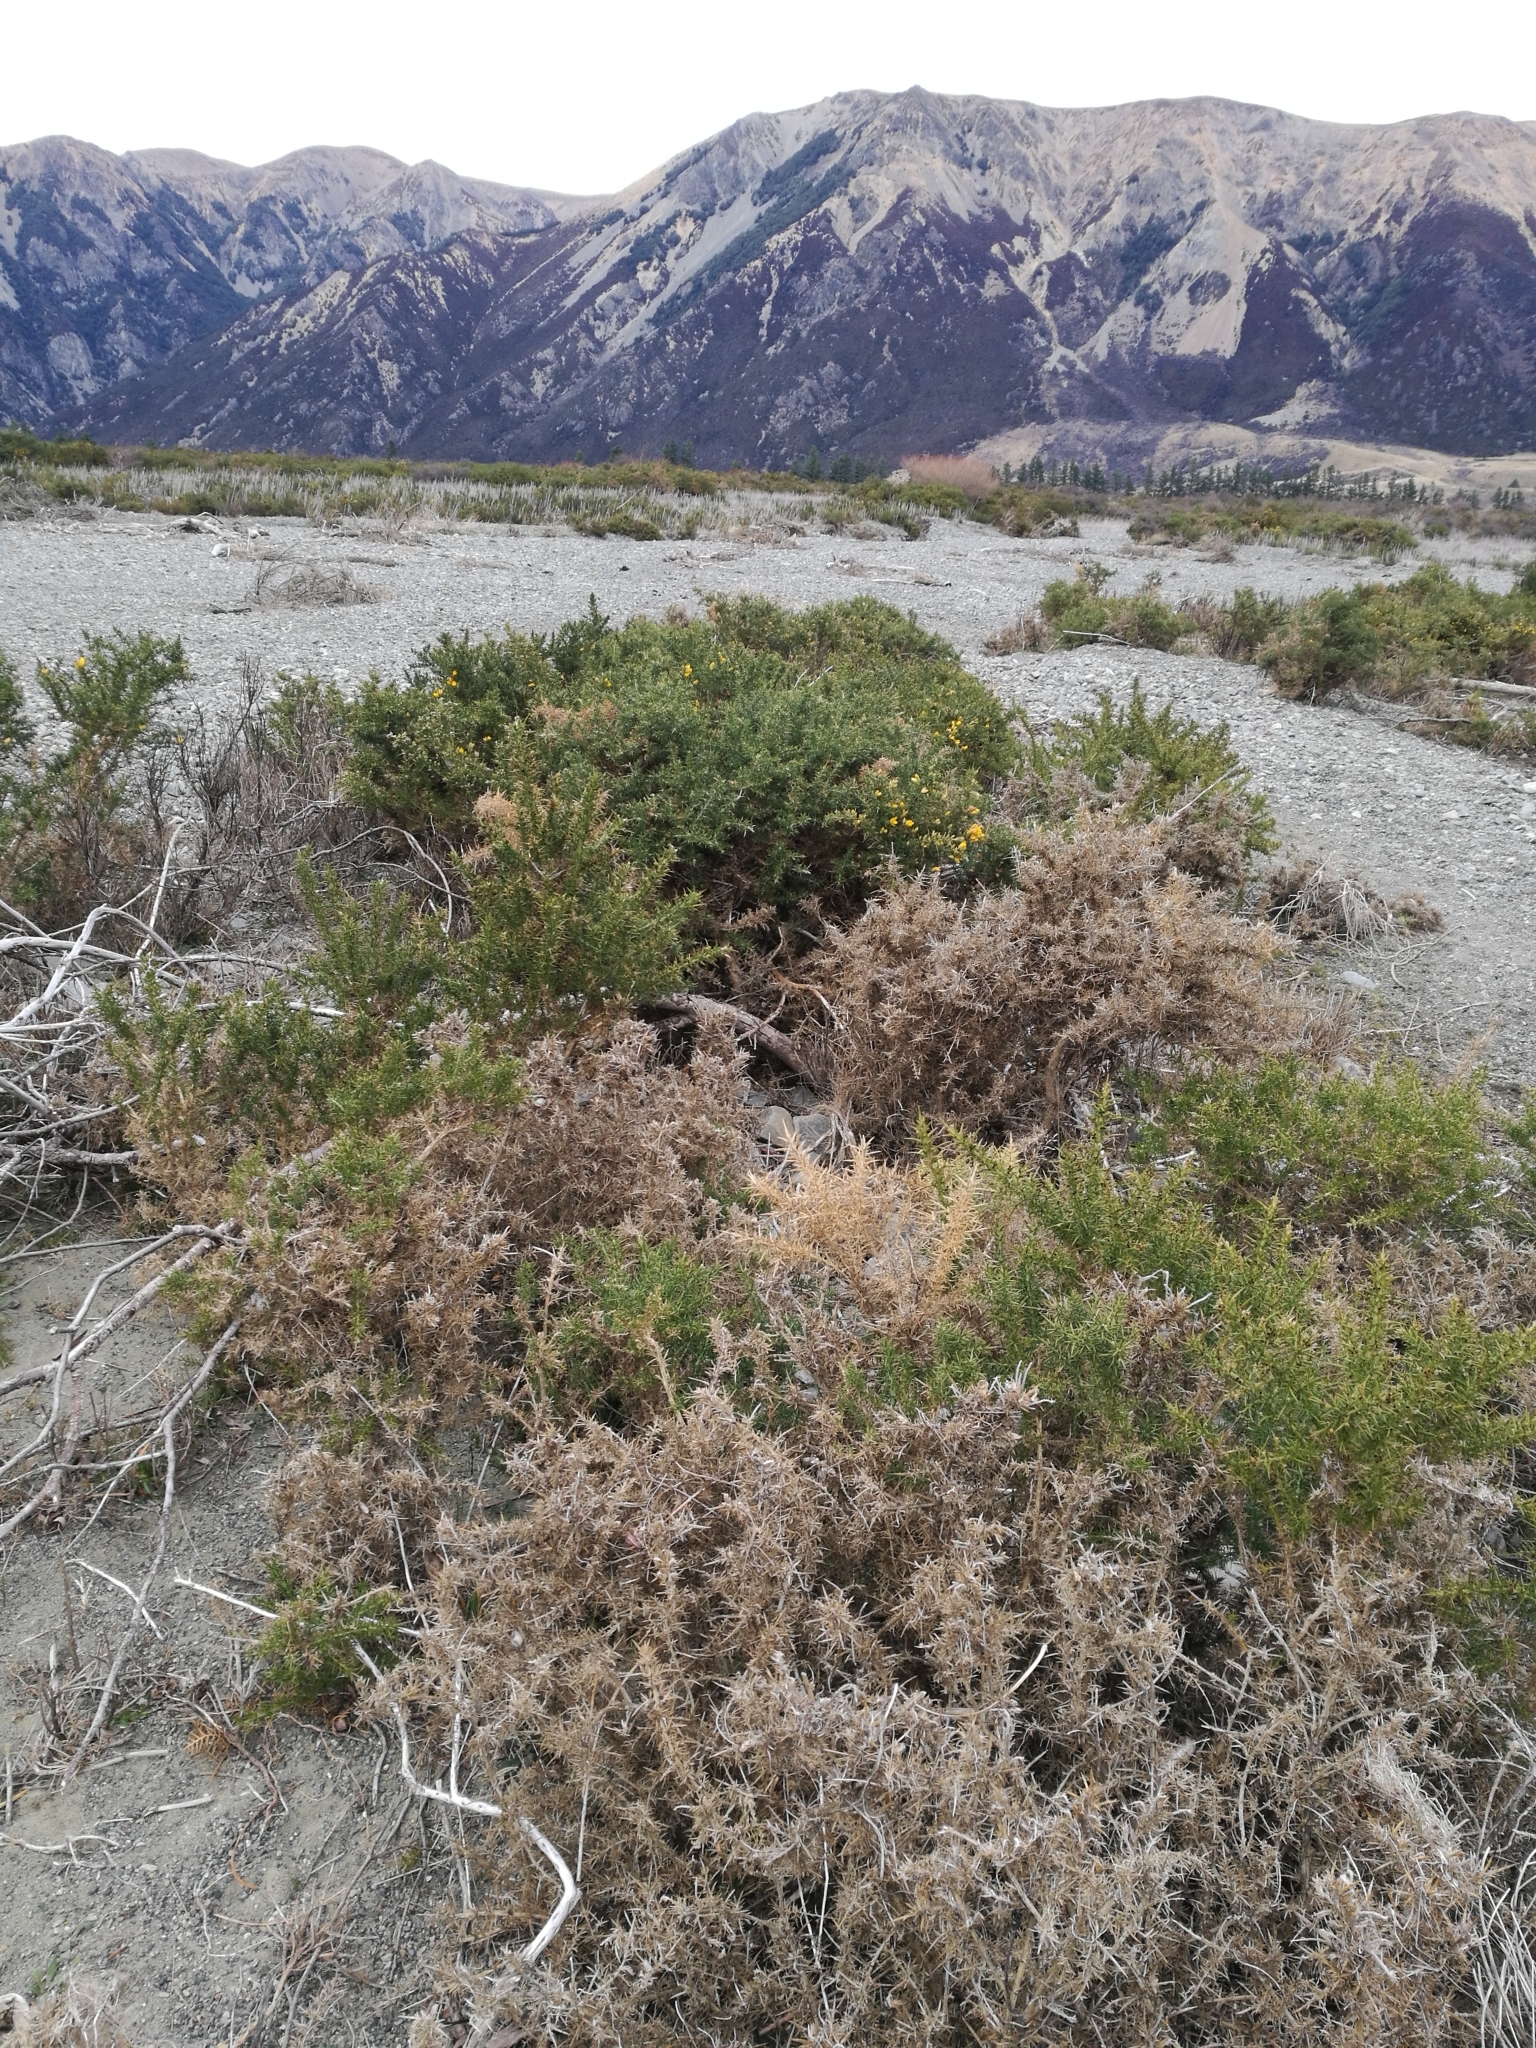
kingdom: Plantae
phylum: Tracheophyta
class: Magnoliopsida
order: Fabales
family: Fabaceae
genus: Ulex
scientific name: Ulex europaeus
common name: Common gorse
